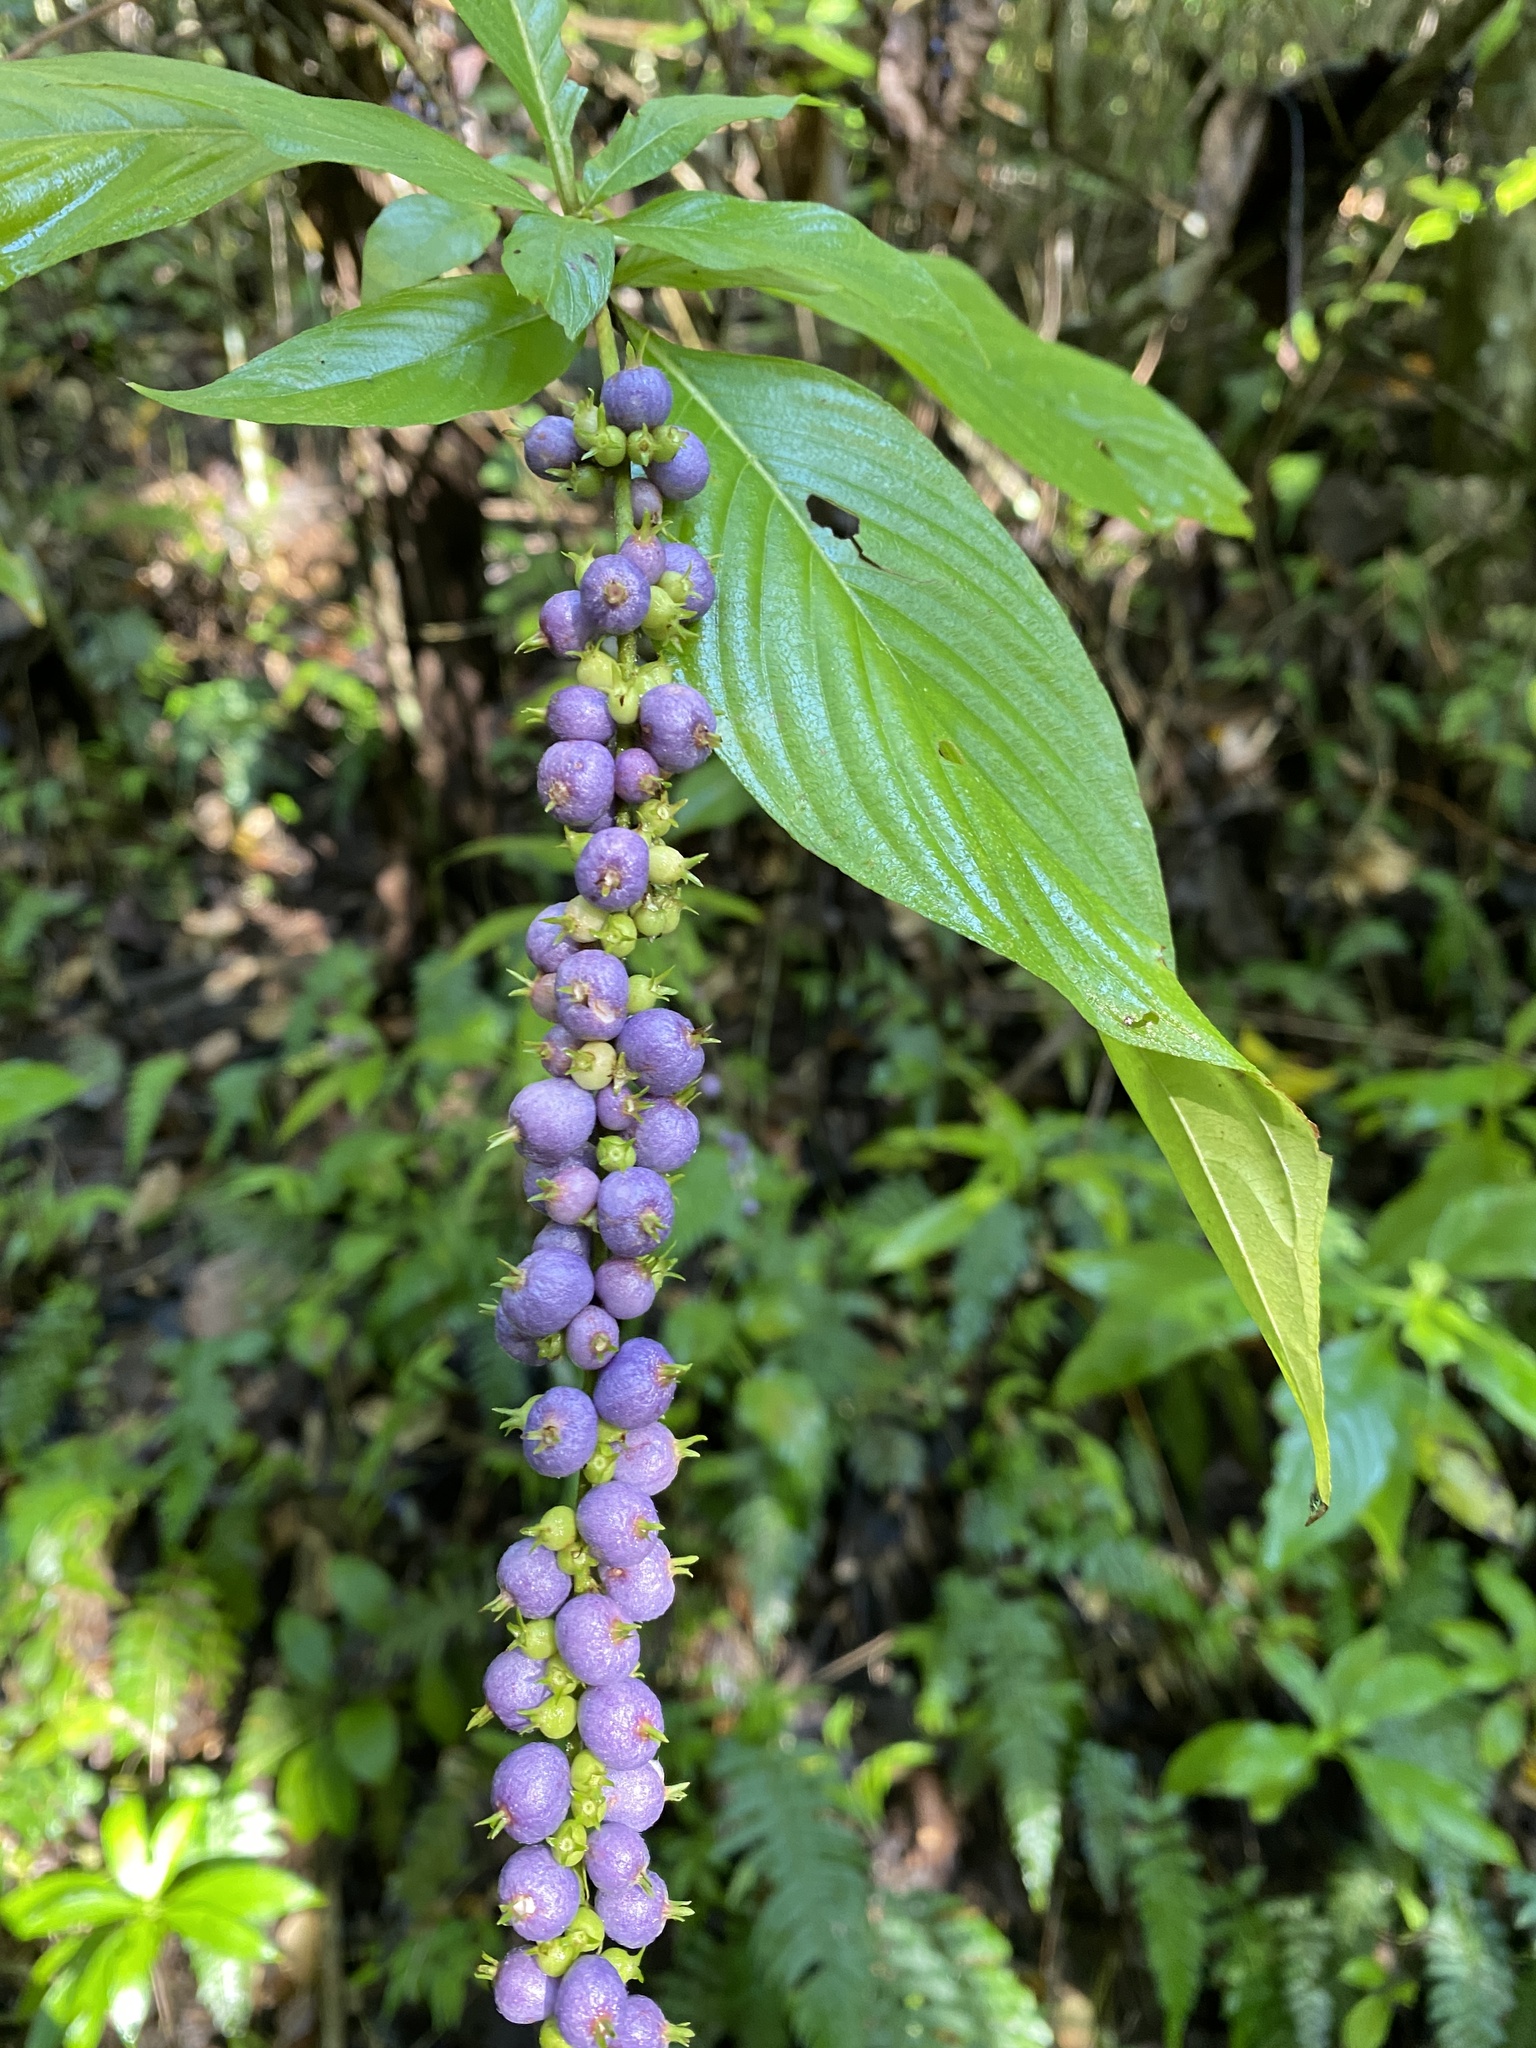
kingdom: Plantae
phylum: Tracheophyta
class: Magnoliopsida
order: Gentianales
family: Rubiaceae
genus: Gonzalagunia
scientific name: Gonzalagunia hirsuta
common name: Mata de mariposa
